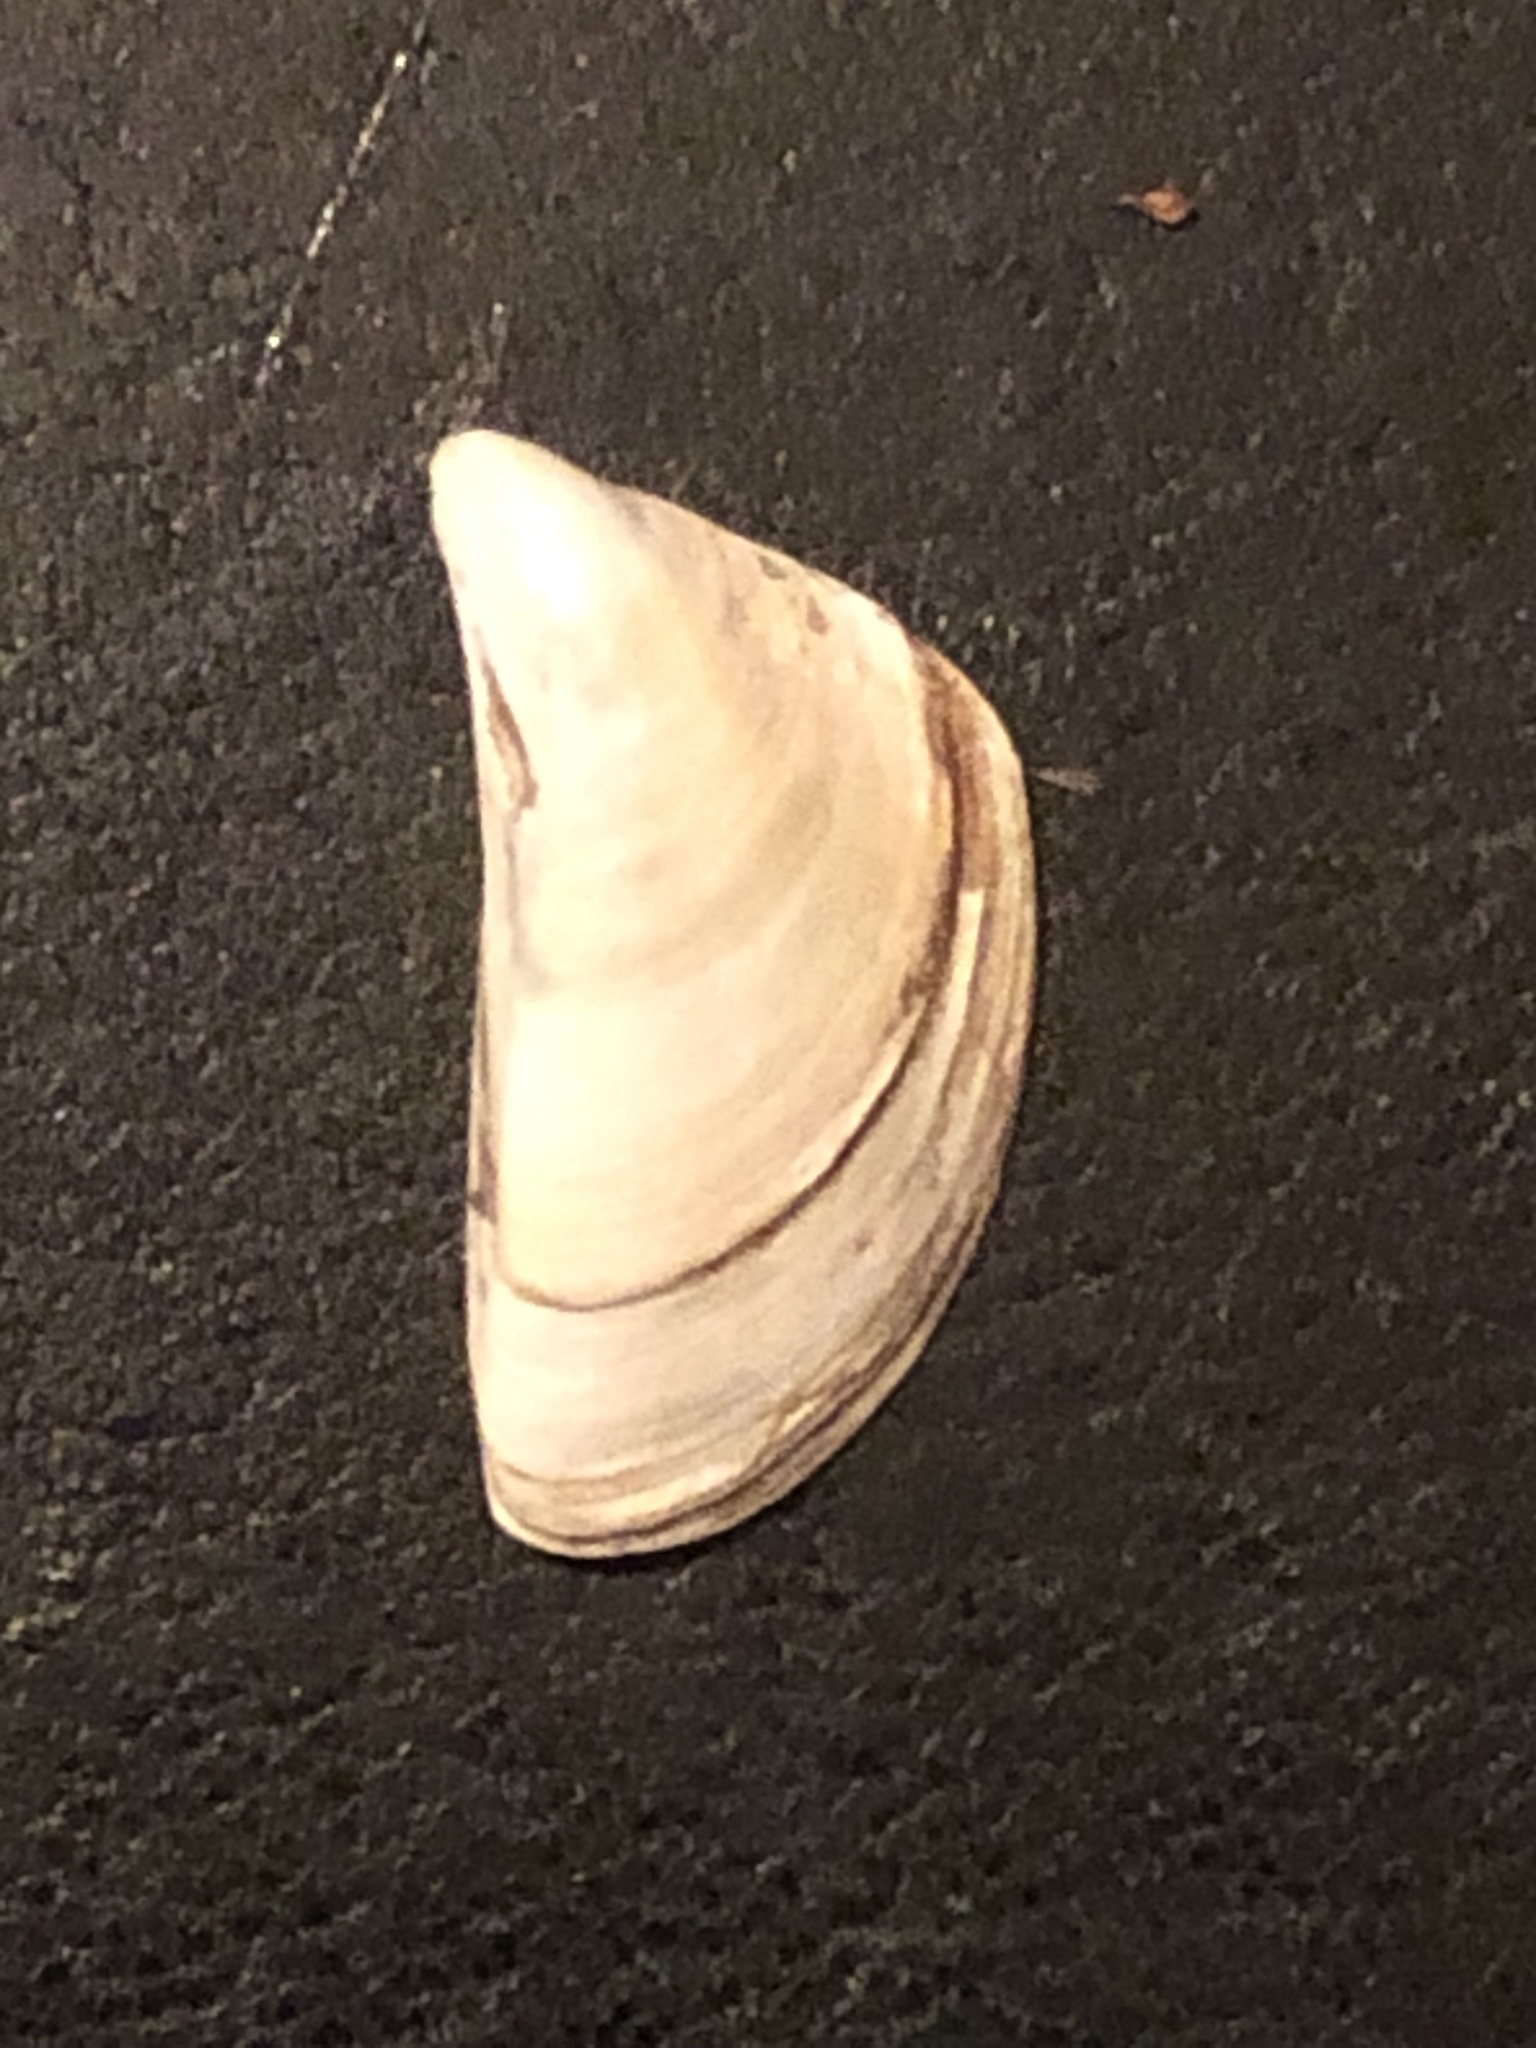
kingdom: Animalia
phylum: Mollusca
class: Bivalvia
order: Myida
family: Dreissenidae
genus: Dreissena
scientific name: Dreissena polymorpha
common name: Zebra mussel
